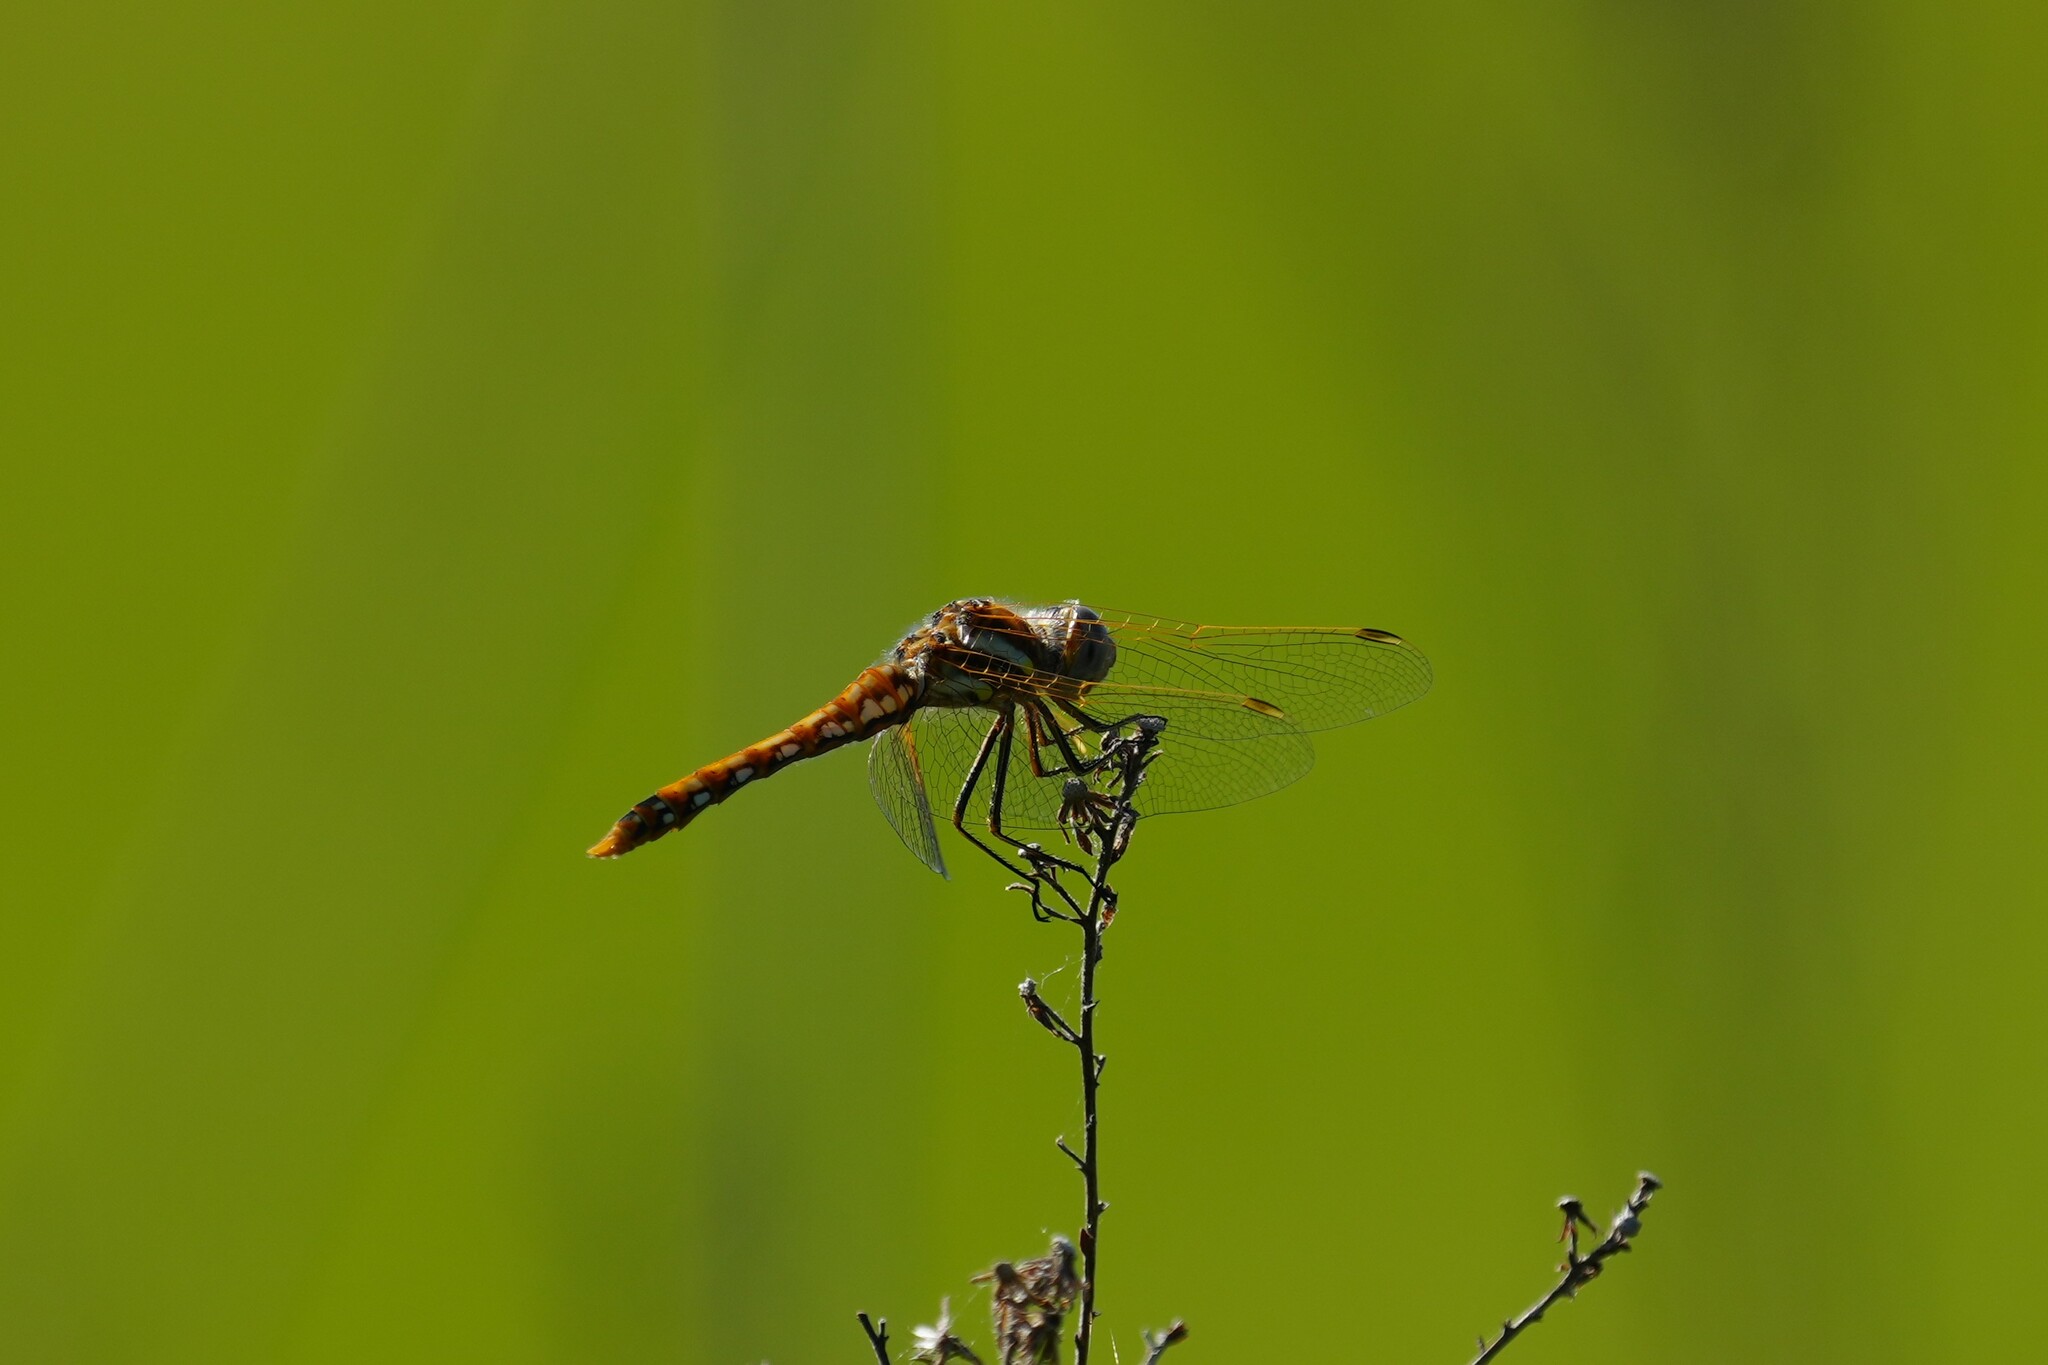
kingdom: Animalia
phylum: Arthropoda
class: Insecta
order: Odonata
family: Libellulidae
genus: Sympetrum
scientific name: Sympetrum corruptum
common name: Variegated meadowhawk
